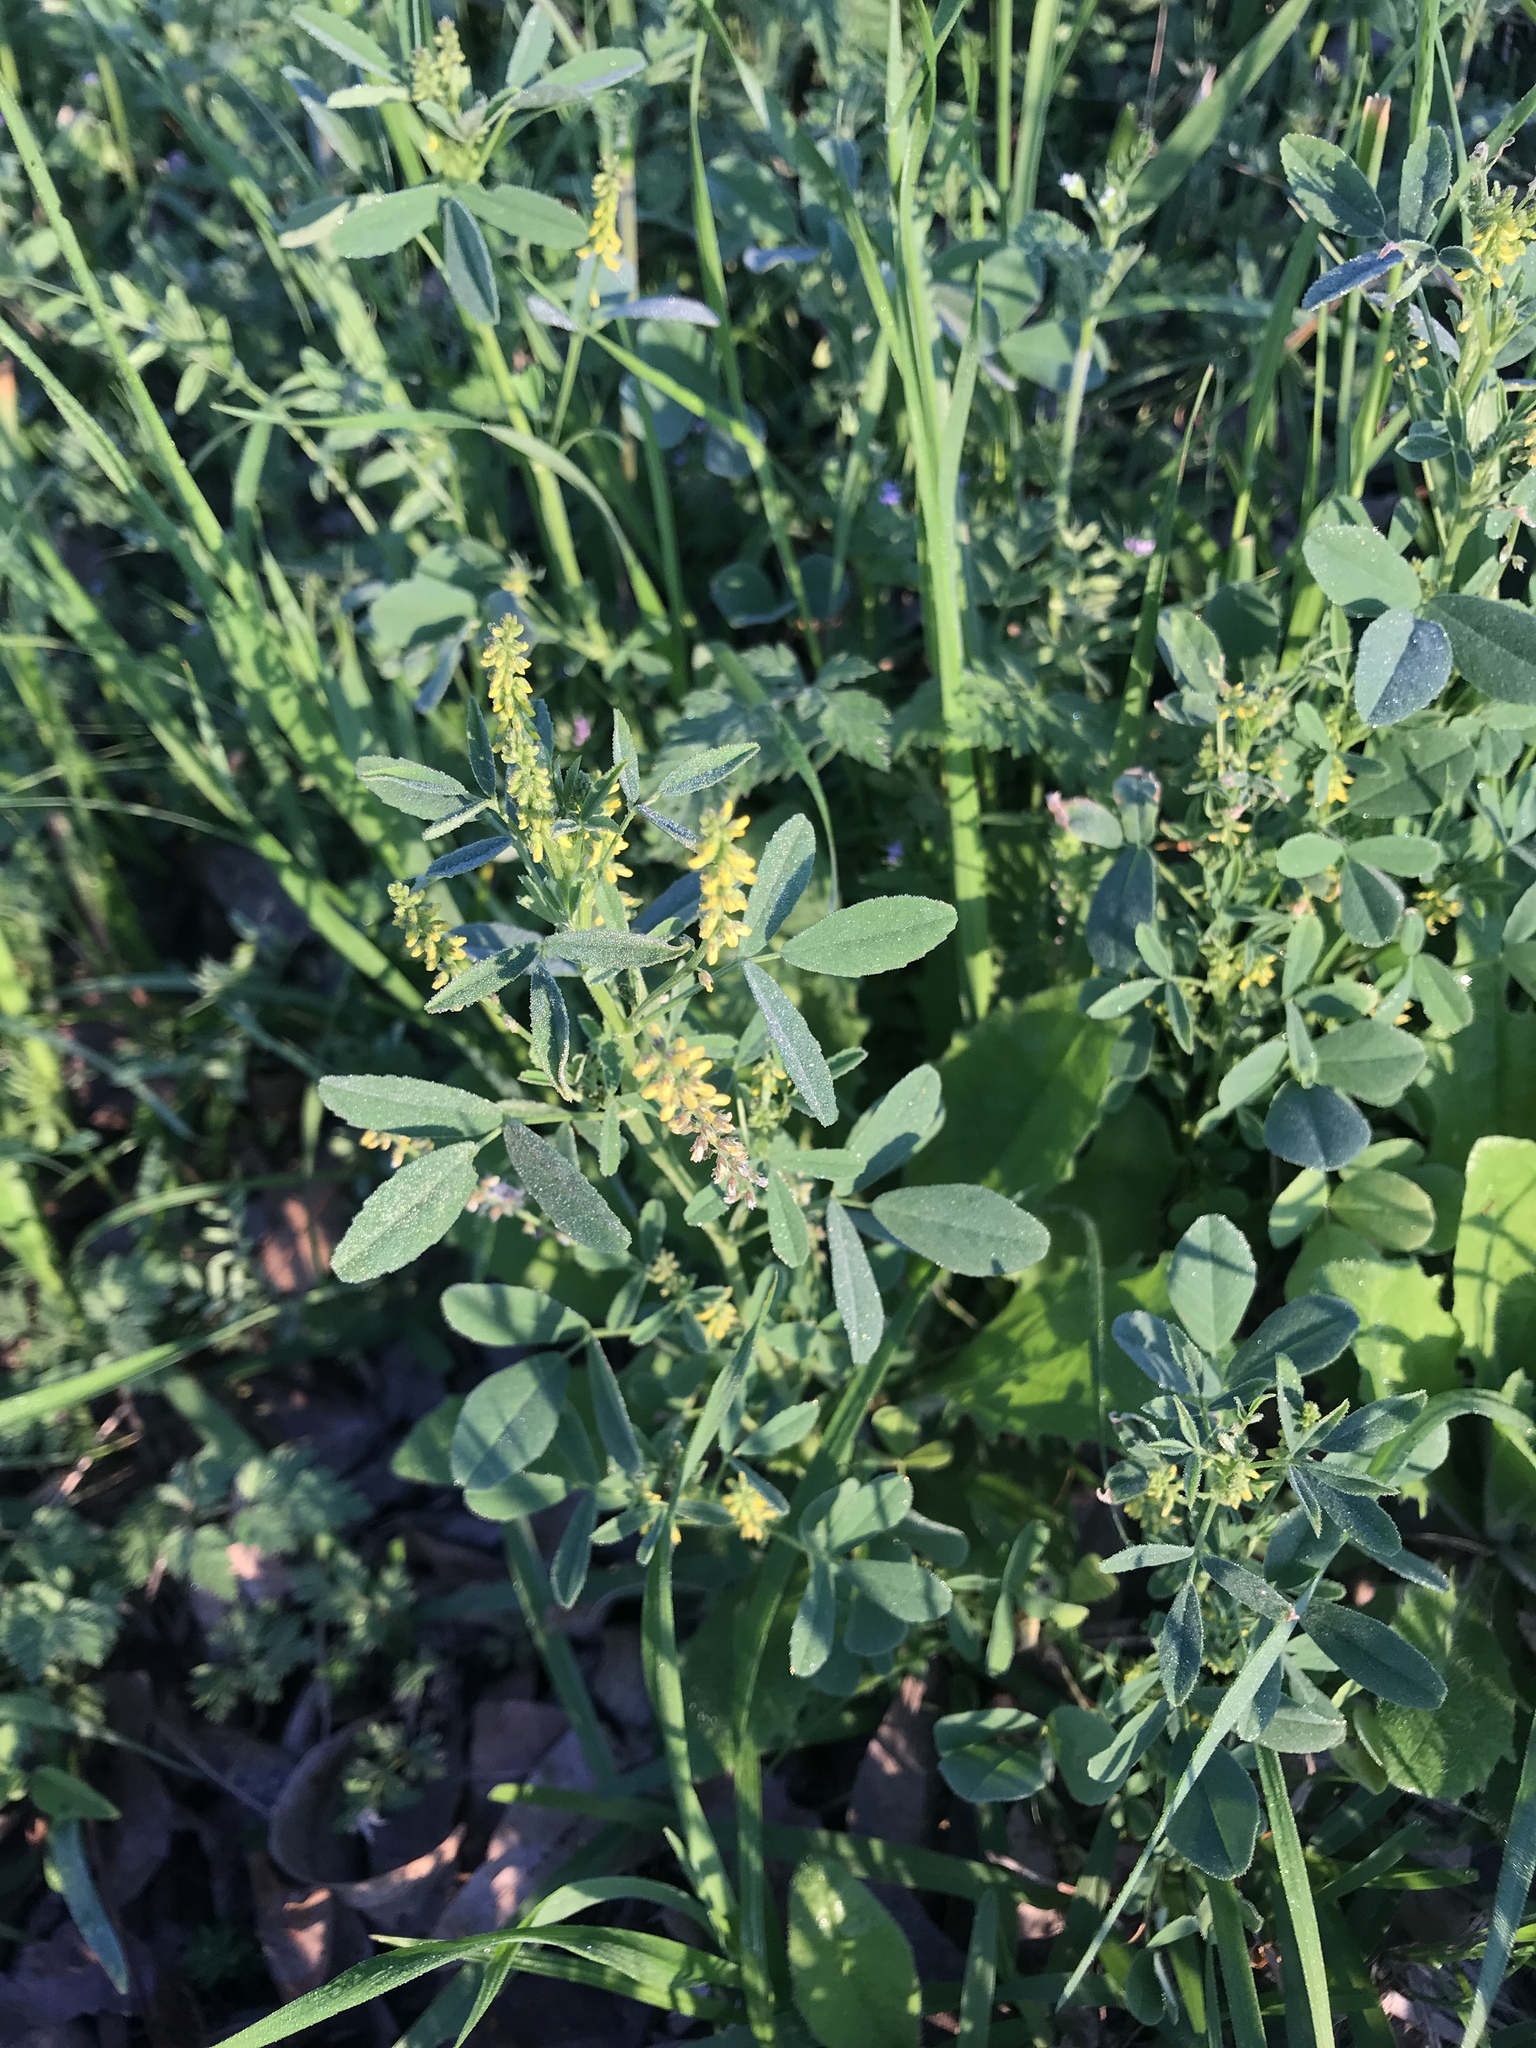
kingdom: Plantae
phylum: Tracheophyta
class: Magnoliopsida
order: Fabales
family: Fabaceae
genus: Melilotus
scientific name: Melilotus indicus
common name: Small melilot
